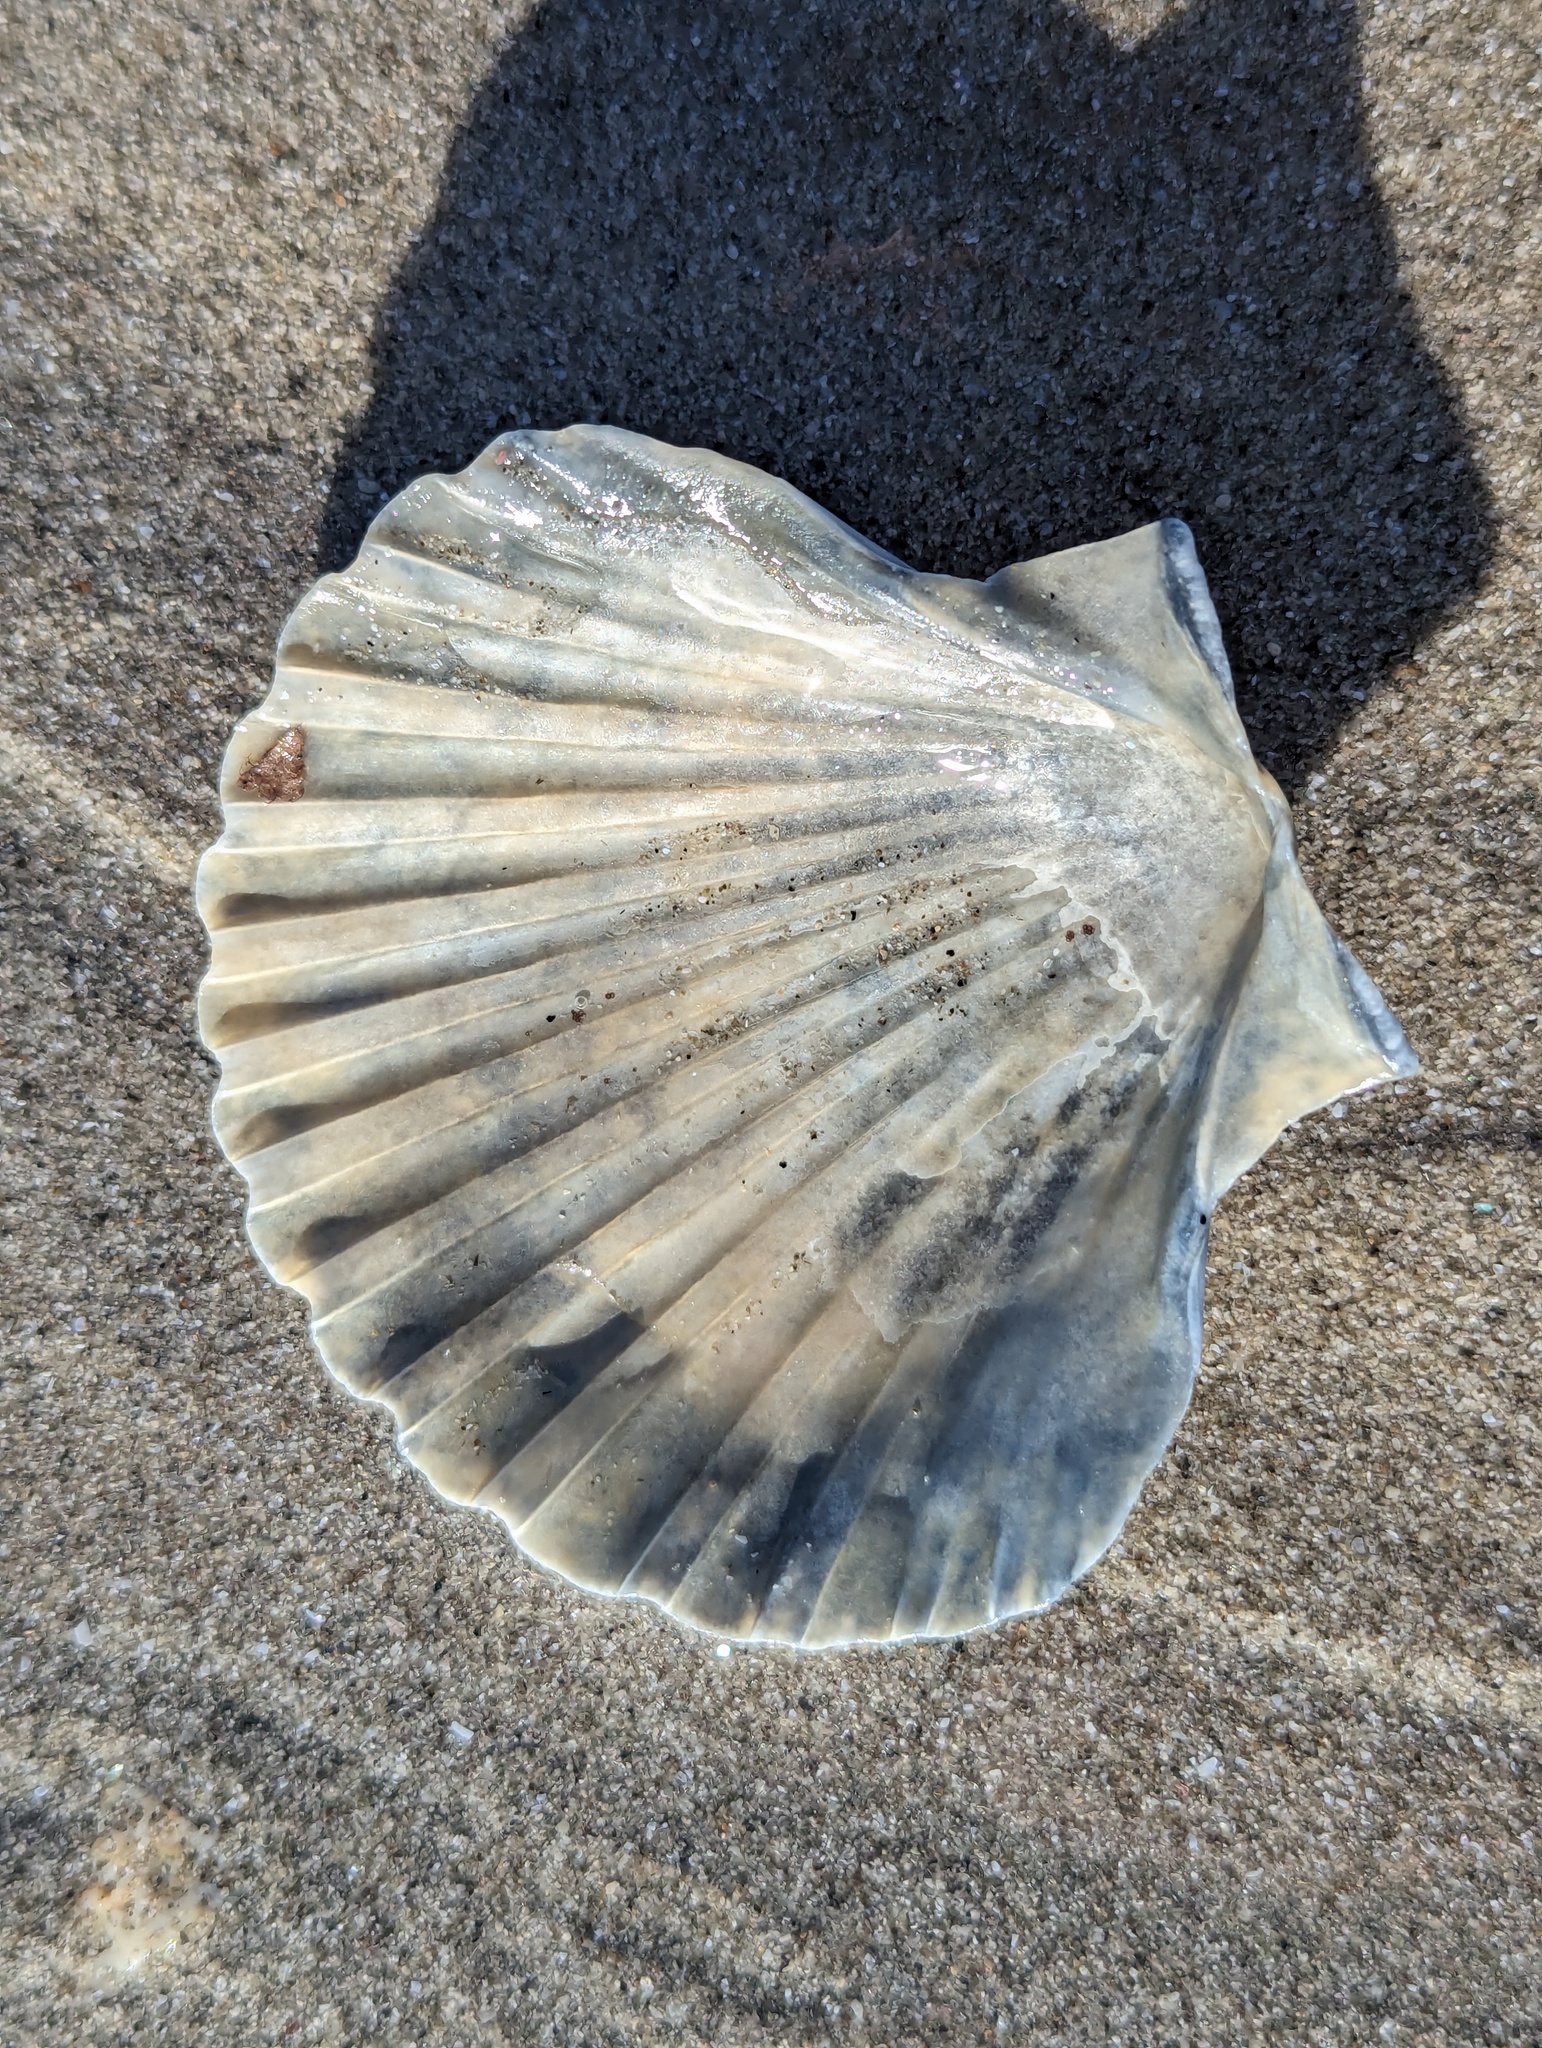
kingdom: Animalia
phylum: Mollusca
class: Bivalvia
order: Pectinida
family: Pectinidae
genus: Pecten
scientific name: Pecten novaezelandiae
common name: New zealand scallop
